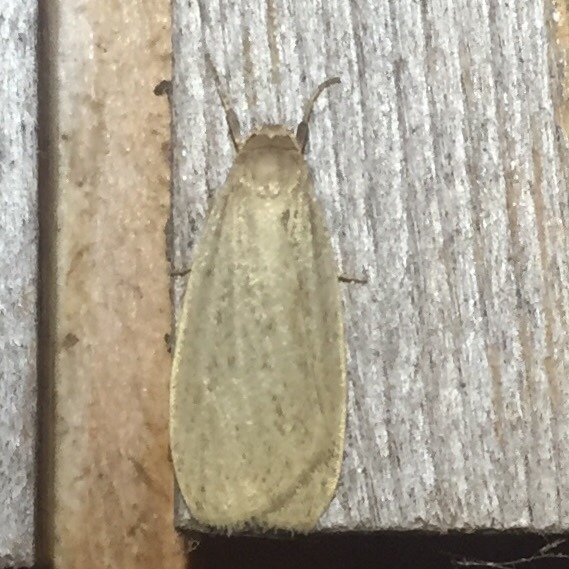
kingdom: Animalia
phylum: Arthropoda
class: Insecta
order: Lepidoptera
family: Erebidae
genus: Crambidia
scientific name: Crambidia pallida
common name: Pale lichen moth
